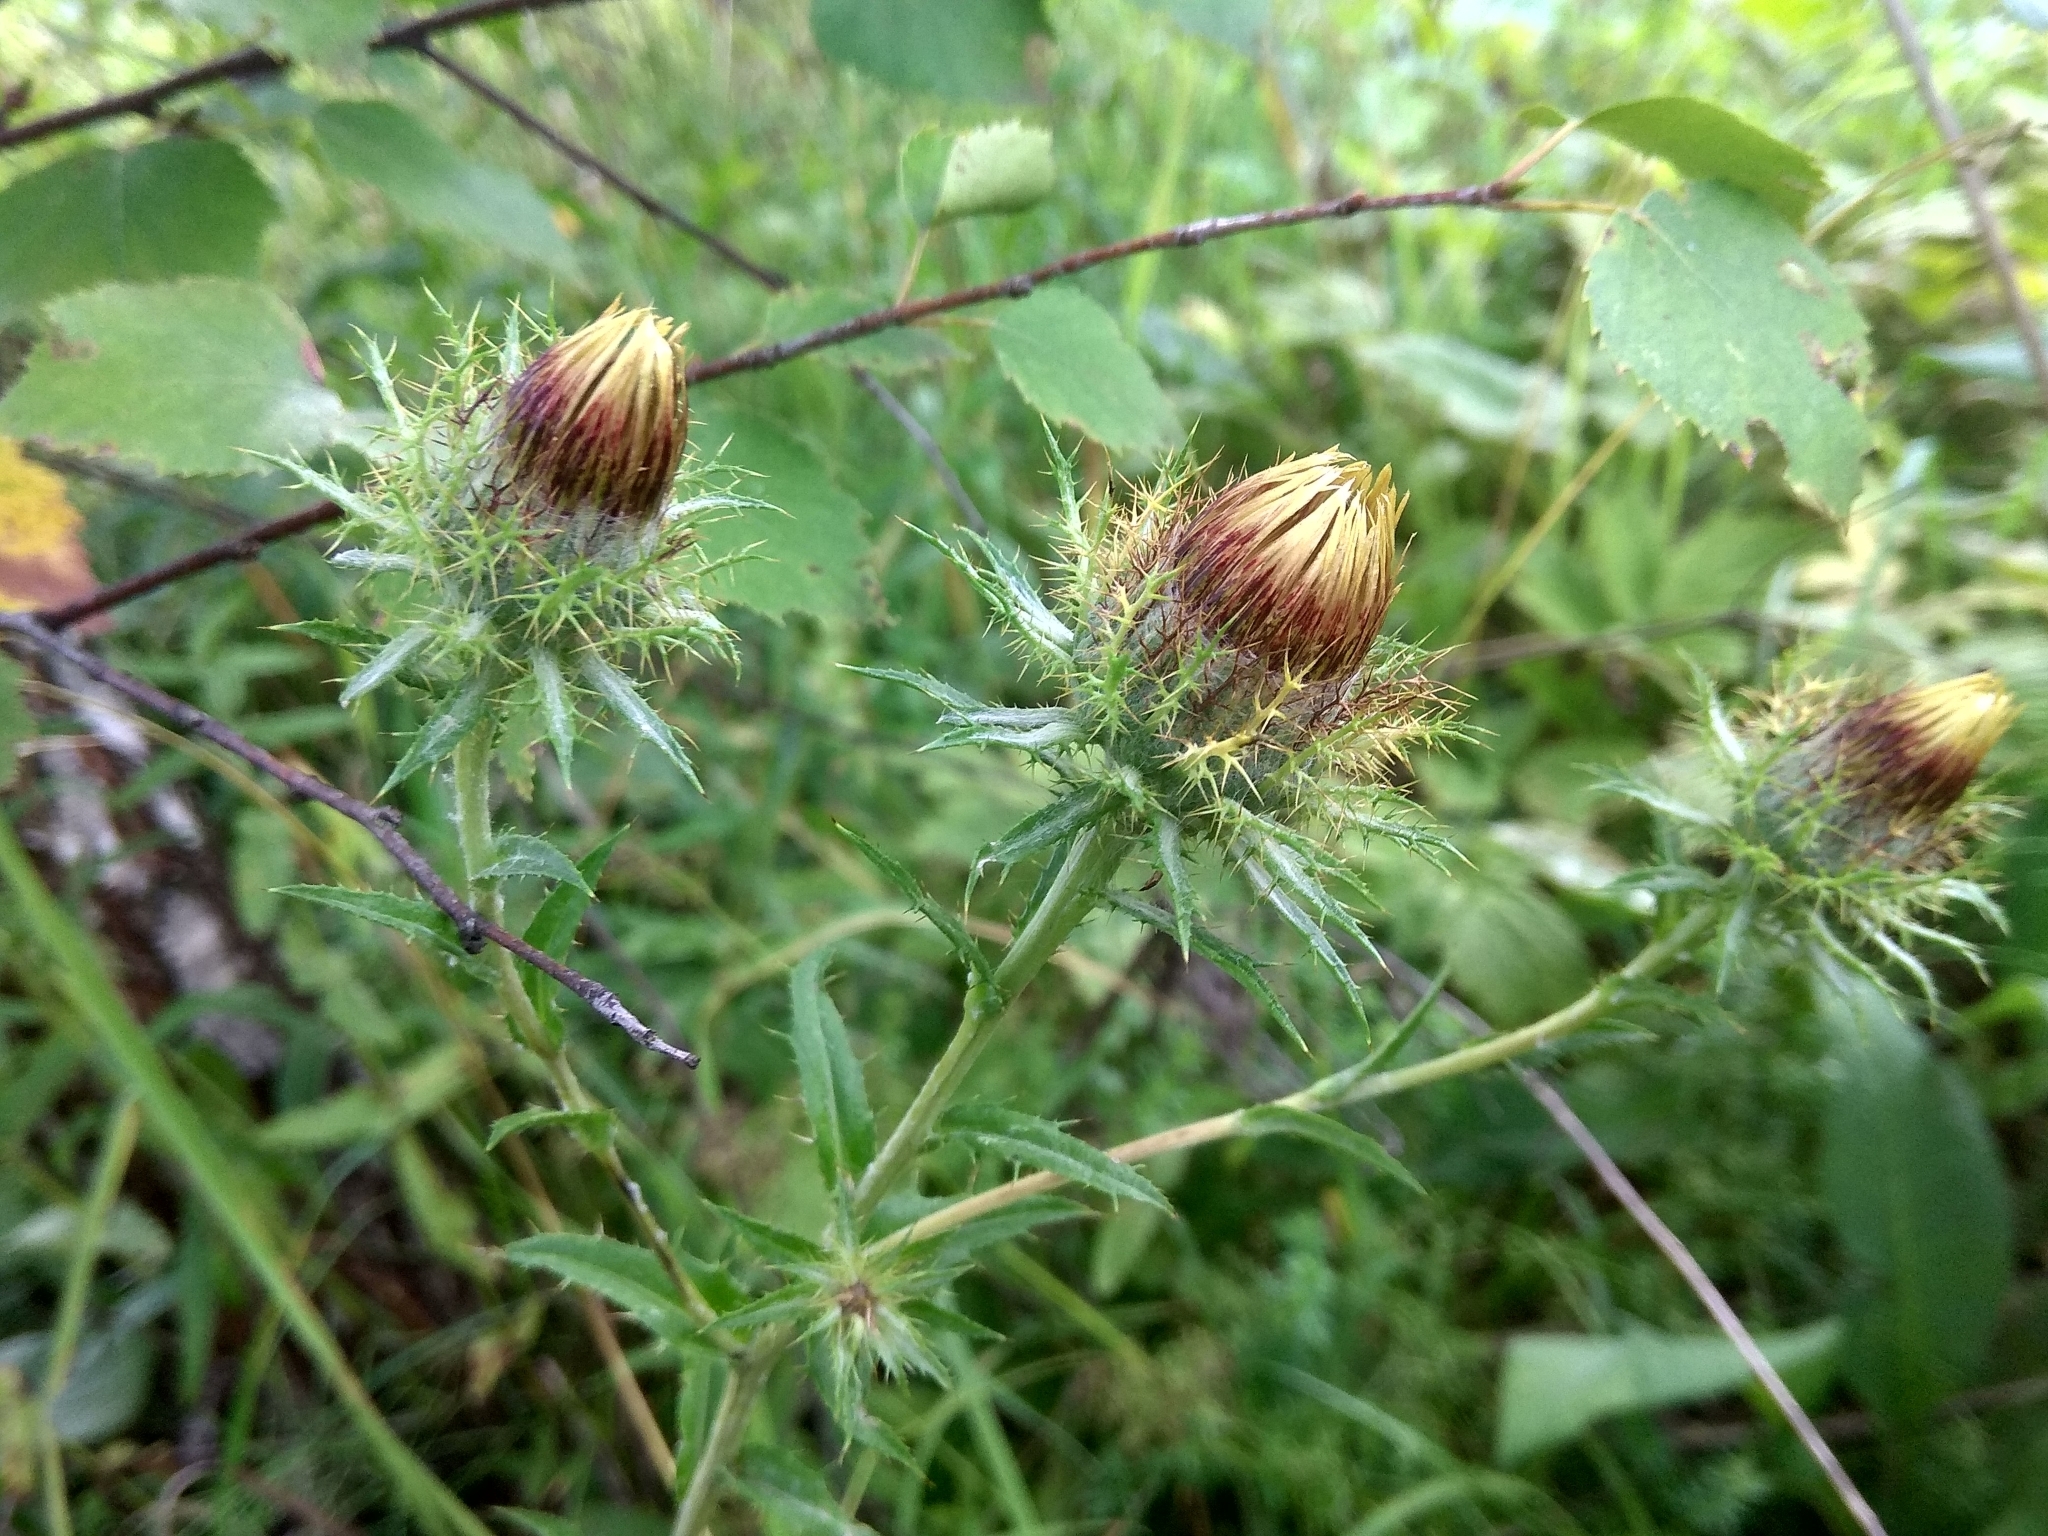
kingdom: Plantae
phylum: Tracheophyta
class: Magnoliopsida
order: Asterales
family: Asteraceae
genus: Carlina
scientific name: Carlina biebersteinii
